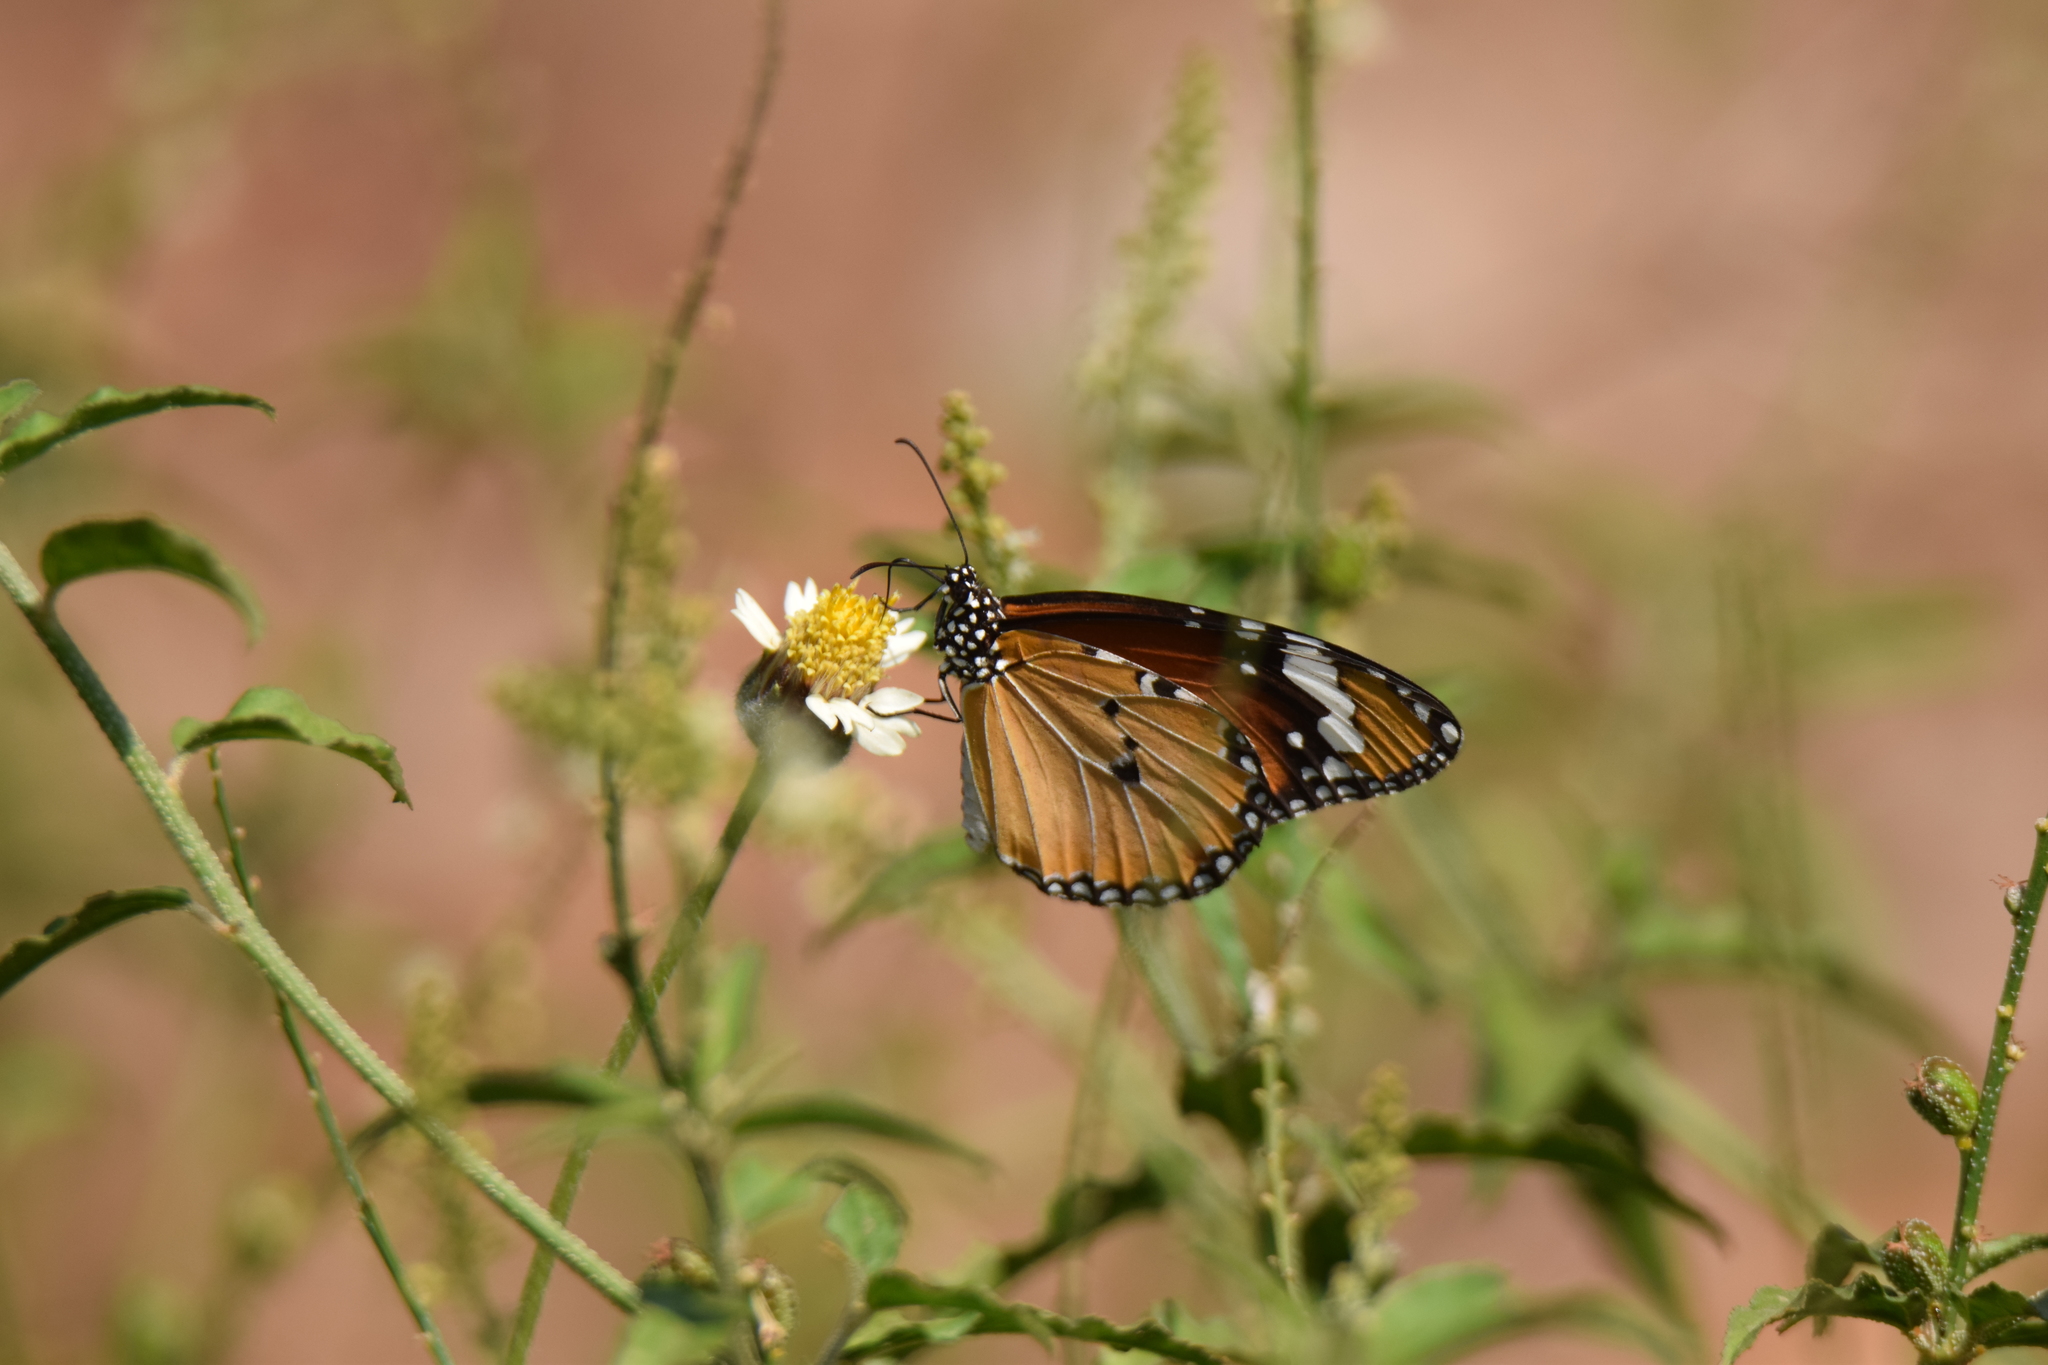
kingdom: Animalia
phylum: Arthropoda
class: Insecta
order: Lepidoptera
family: Nymphalidae
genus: Danaus
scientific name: Danaus chrysippus
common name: Plain tiger
